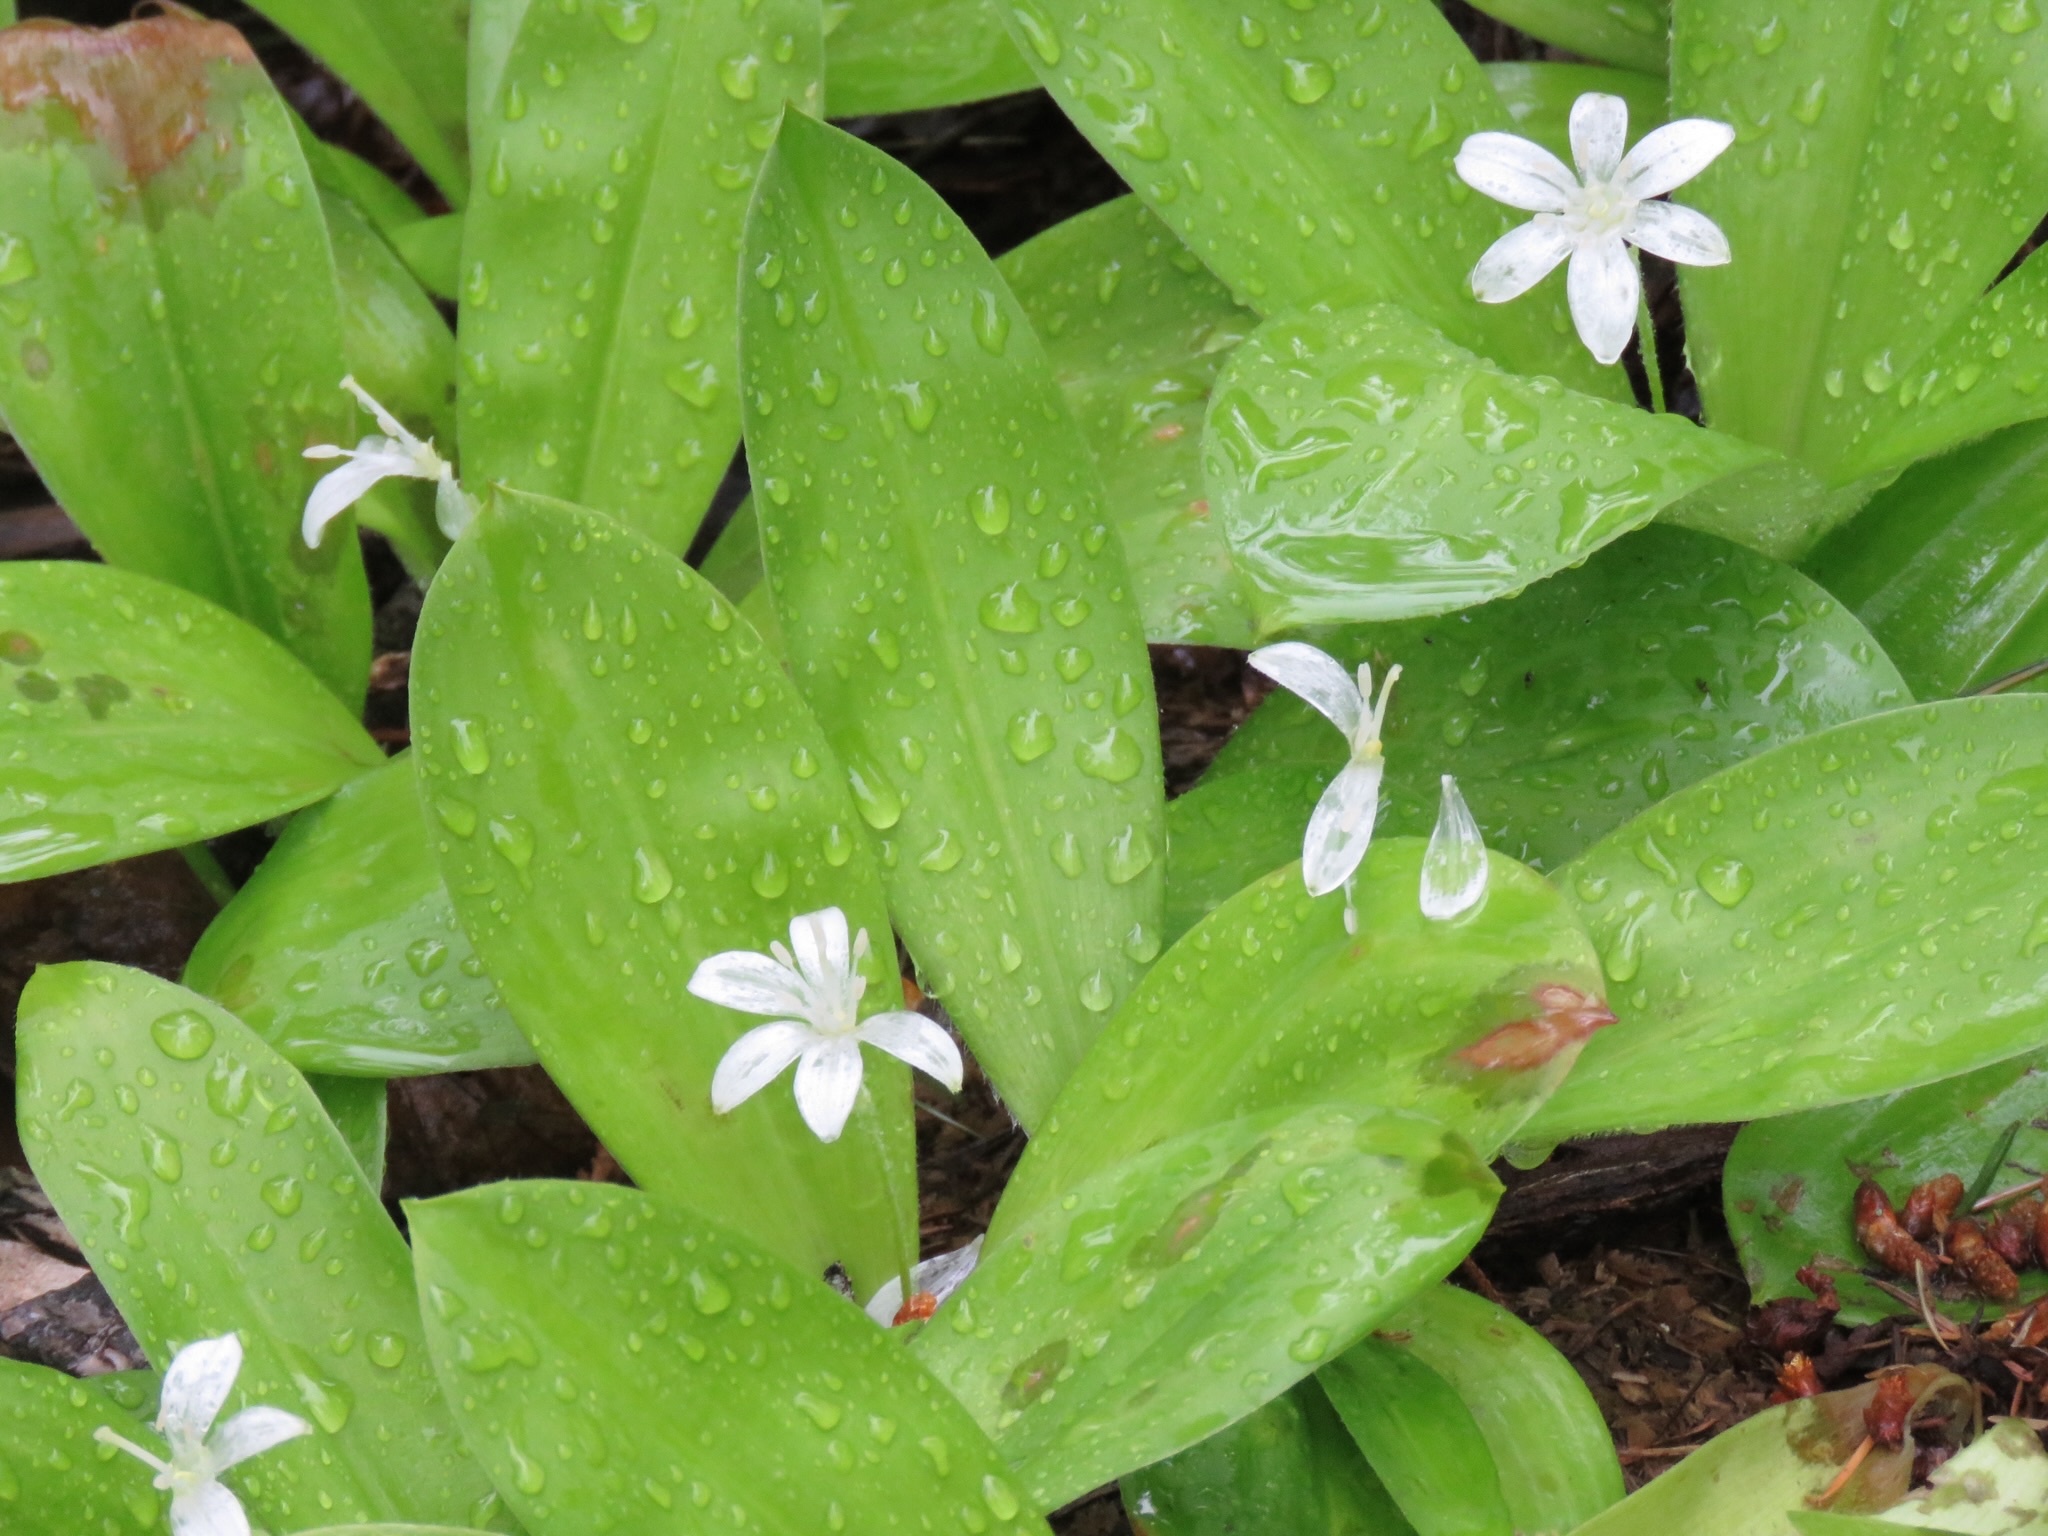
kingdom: Plantae
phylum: Tracheophyta
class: Liliopsida
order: Liliales
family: Liliaceae
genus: Clintonia
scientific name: Clintonia uniflora
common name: Queen's cup
